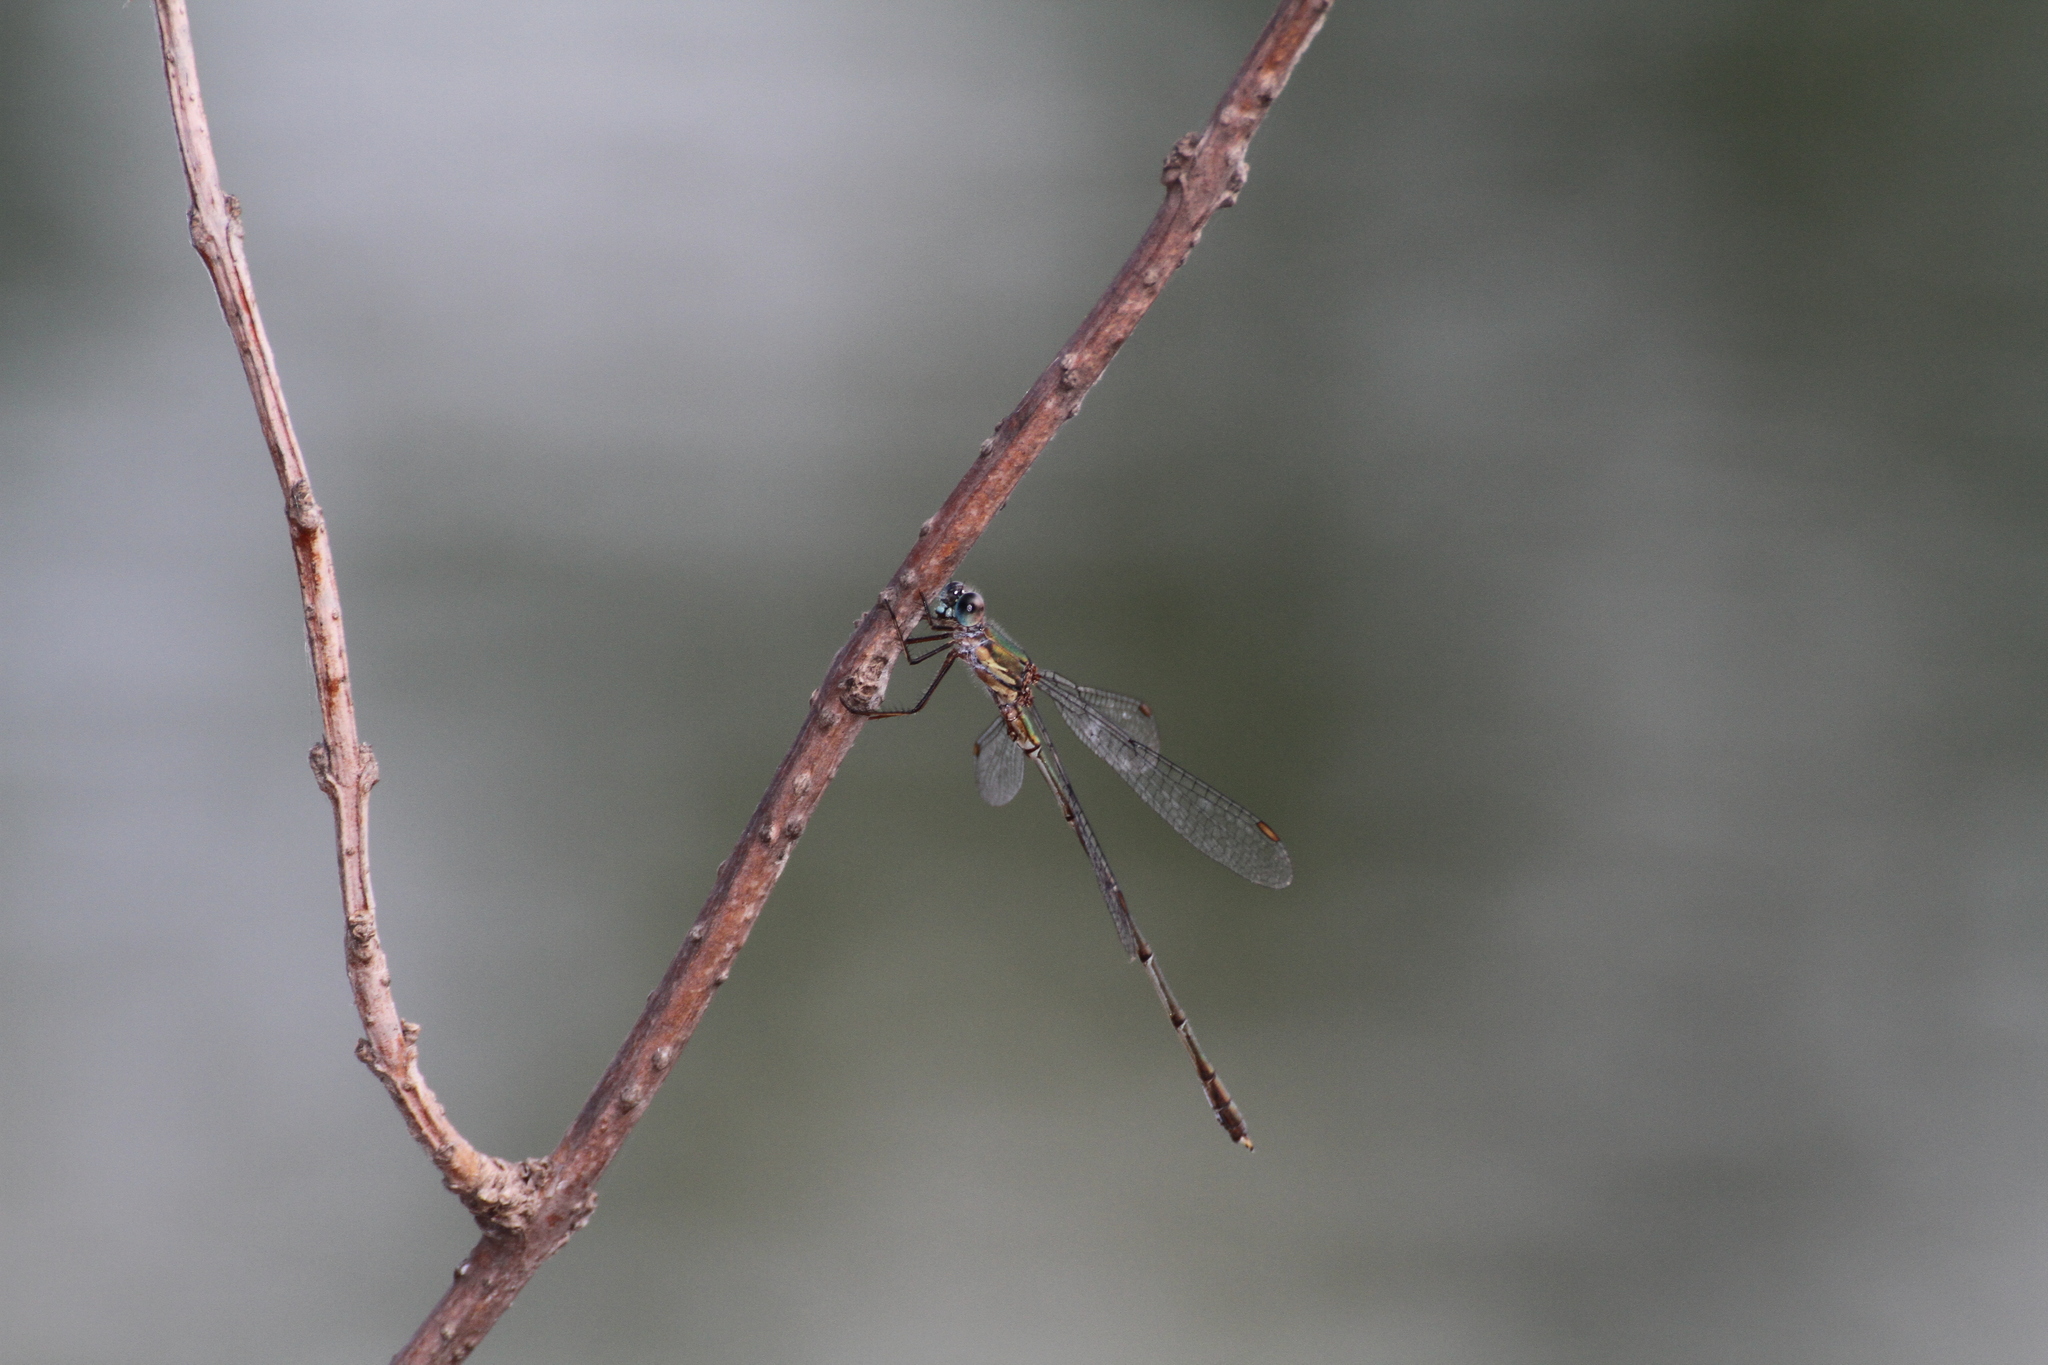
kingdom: Animalia
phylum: Arthropoda
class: Insecta
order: Odonata
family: Lestidae
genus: Chalcolestes
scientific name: Chalcolestes viridis
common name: Green emerald damselfly
